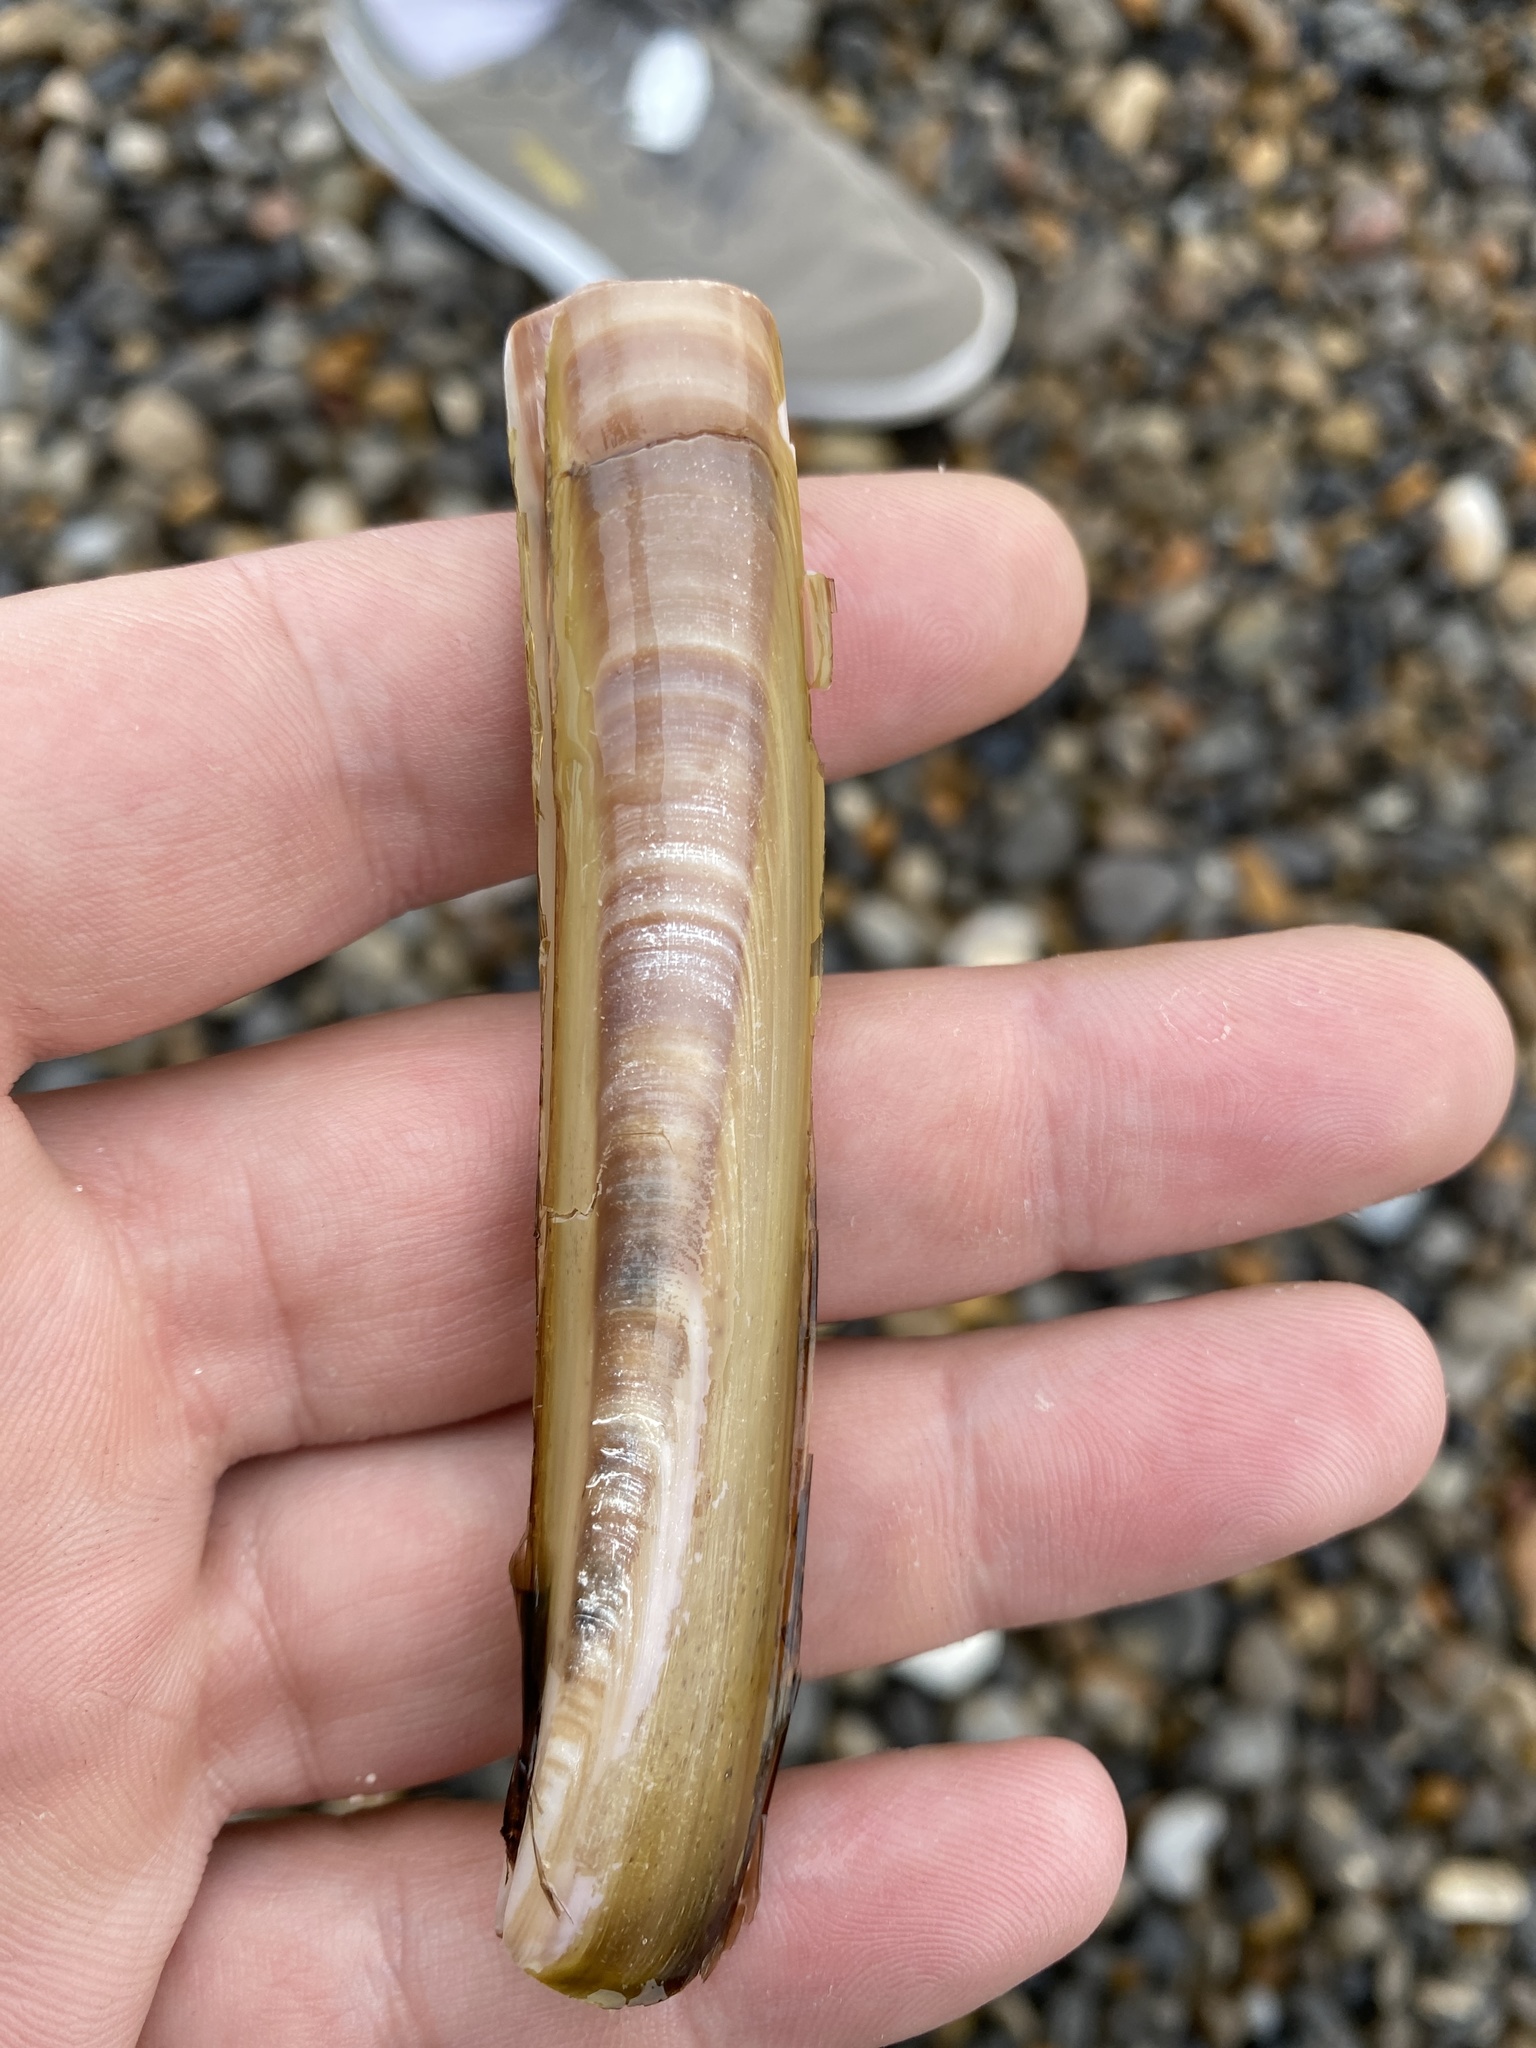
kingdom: Animalia
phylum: Mollusca
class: Bivalvia
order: Adapedonta
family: Pharidae
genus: Ensis
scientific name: Ensis magnus
